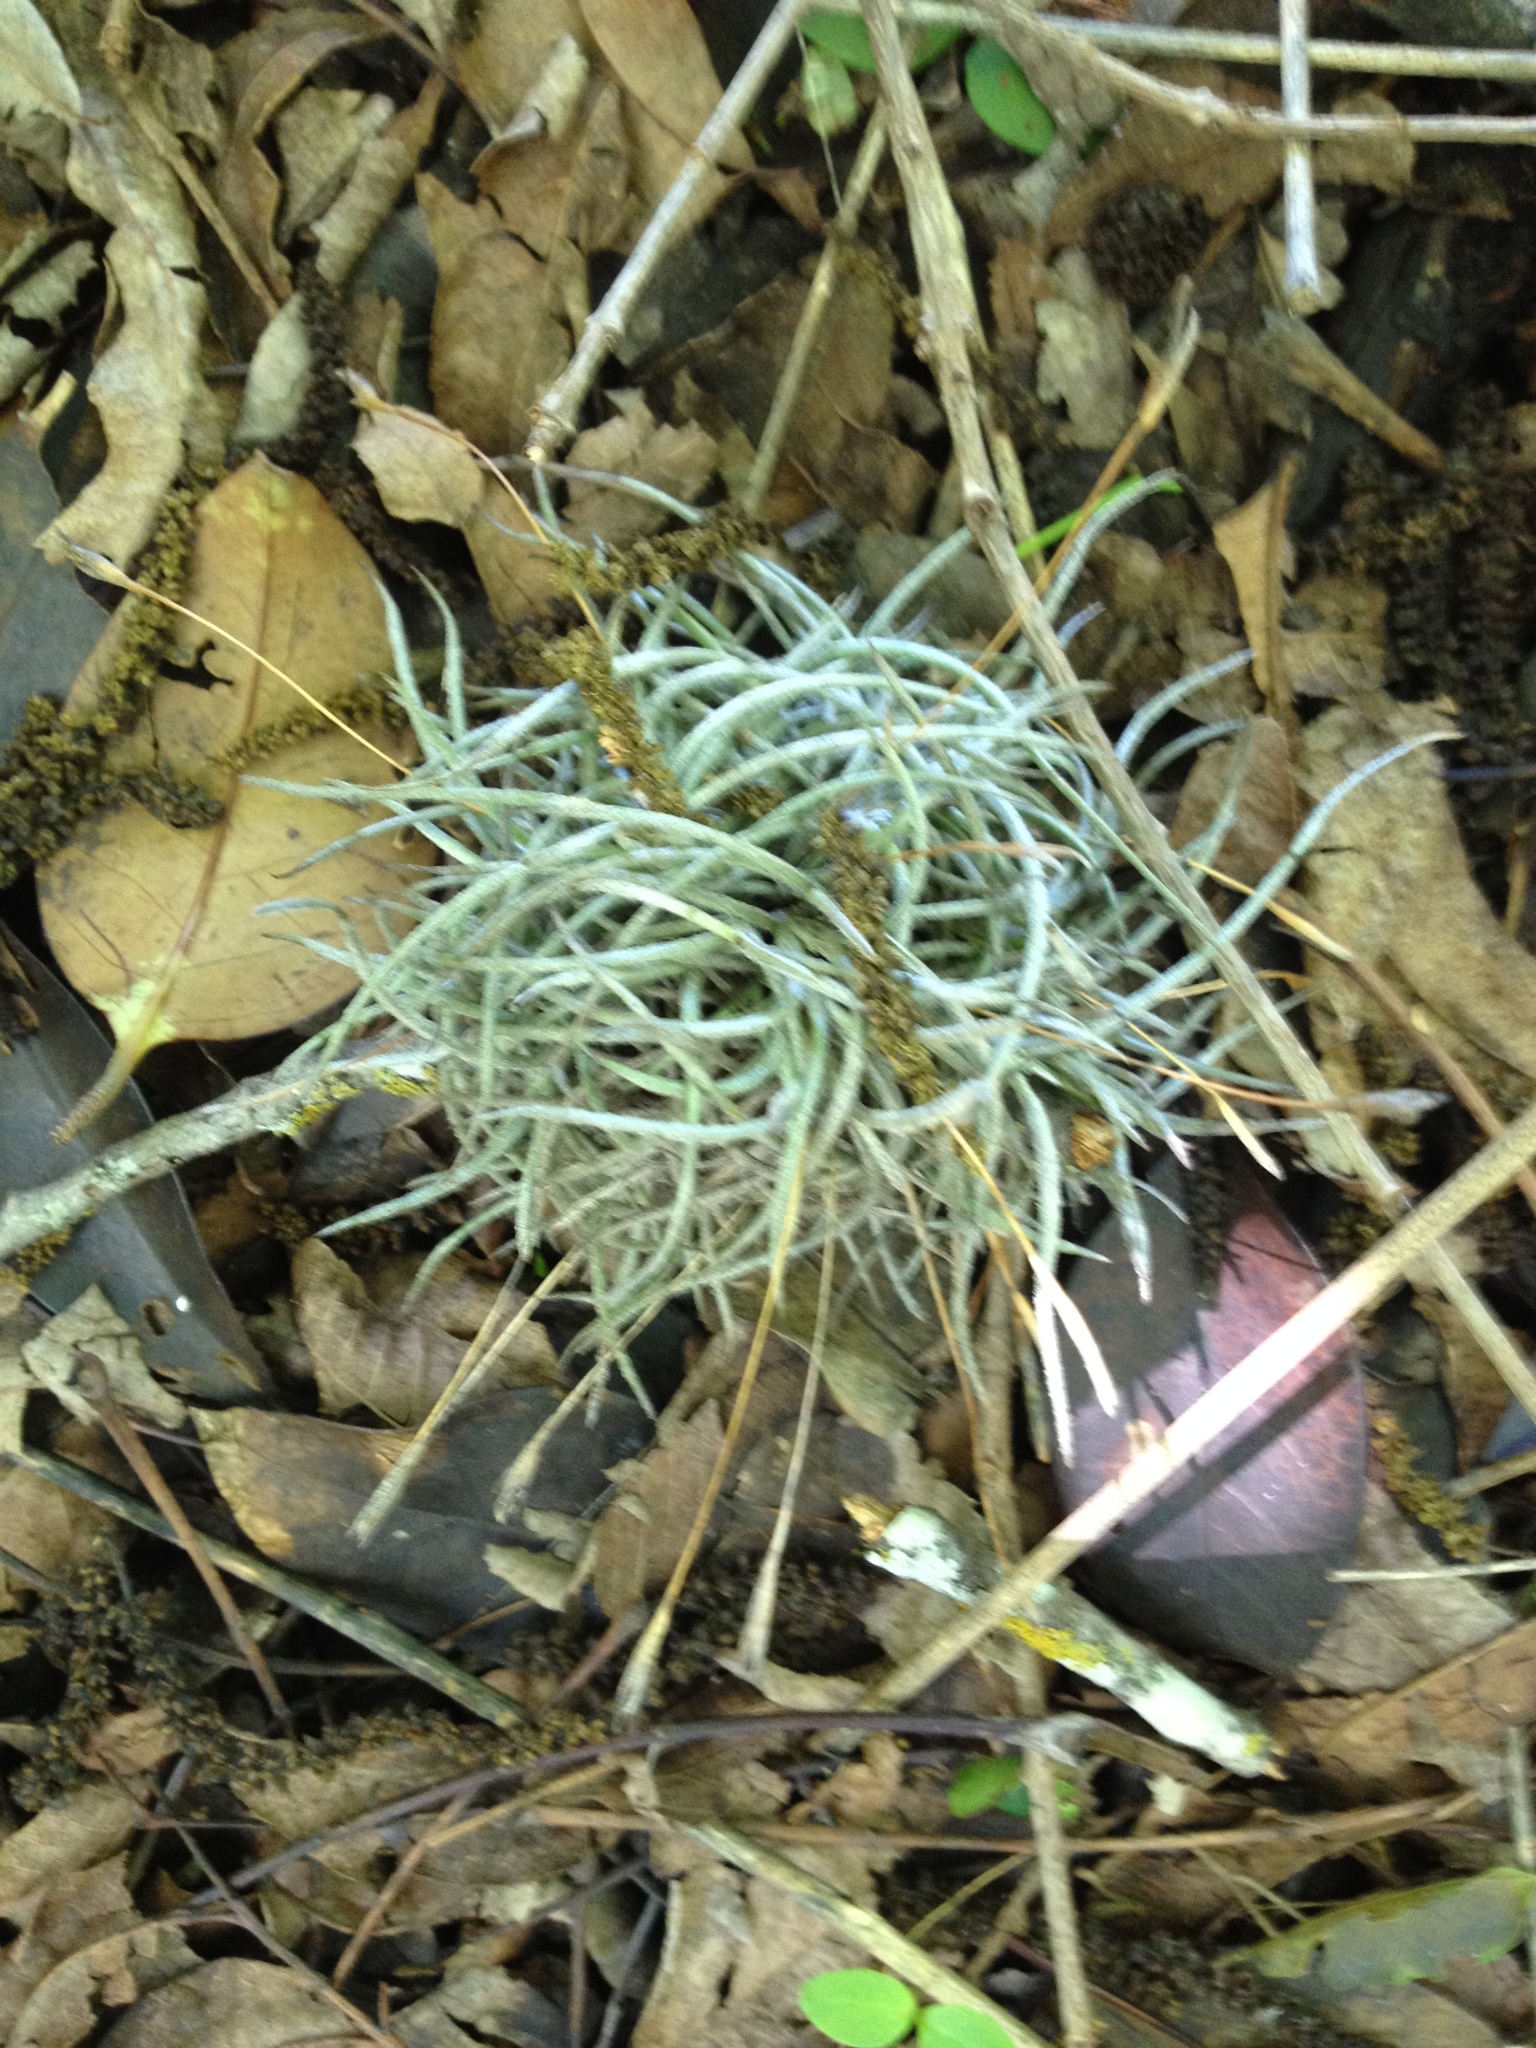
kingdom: Plantae
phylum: Tracheophyta
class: Liliopsida
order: Poales
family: Bromeliaceae
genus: Tillandsia
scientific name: Tillandsia recurvata
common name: Small ballmoss
